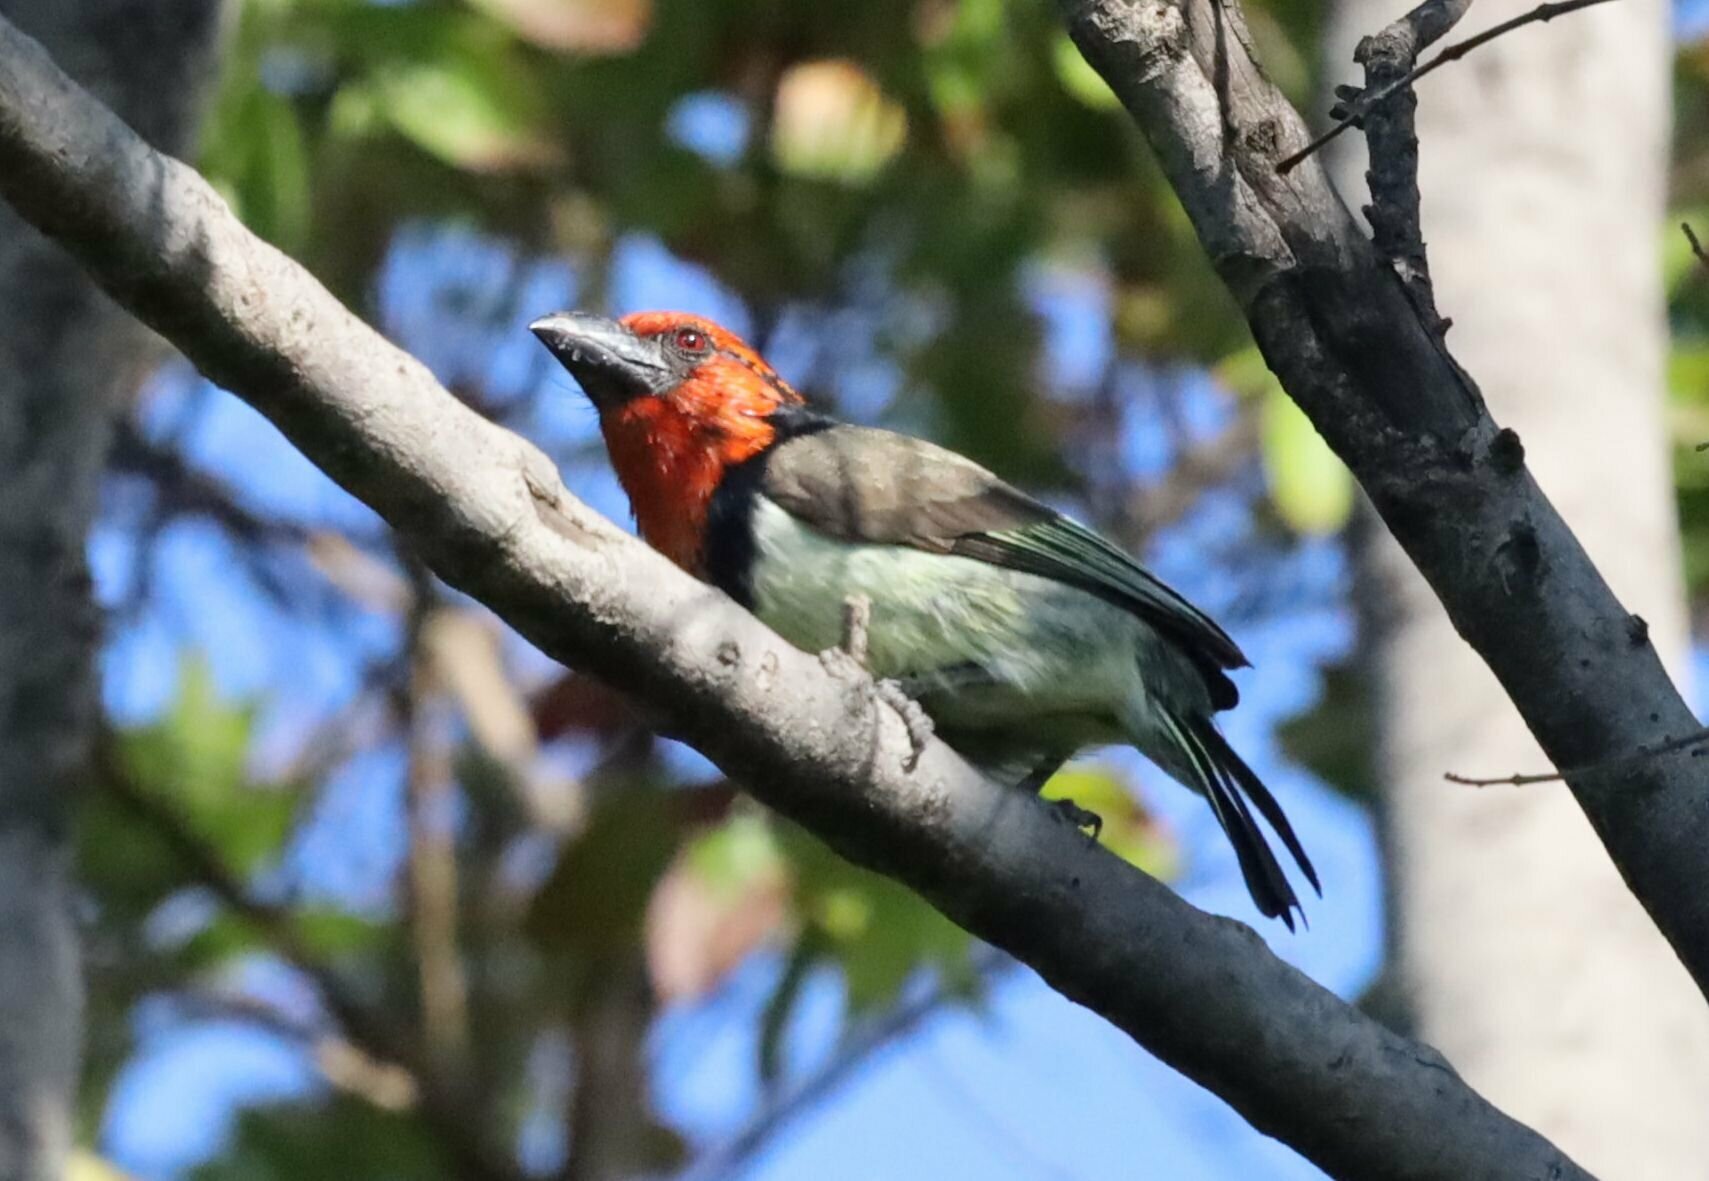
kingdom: Animalia
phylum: Chordata
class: Aves
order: Piciformes
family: Lybiidae
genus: Lybius
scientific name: Lybius torquatus
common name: Black-collared barbet
